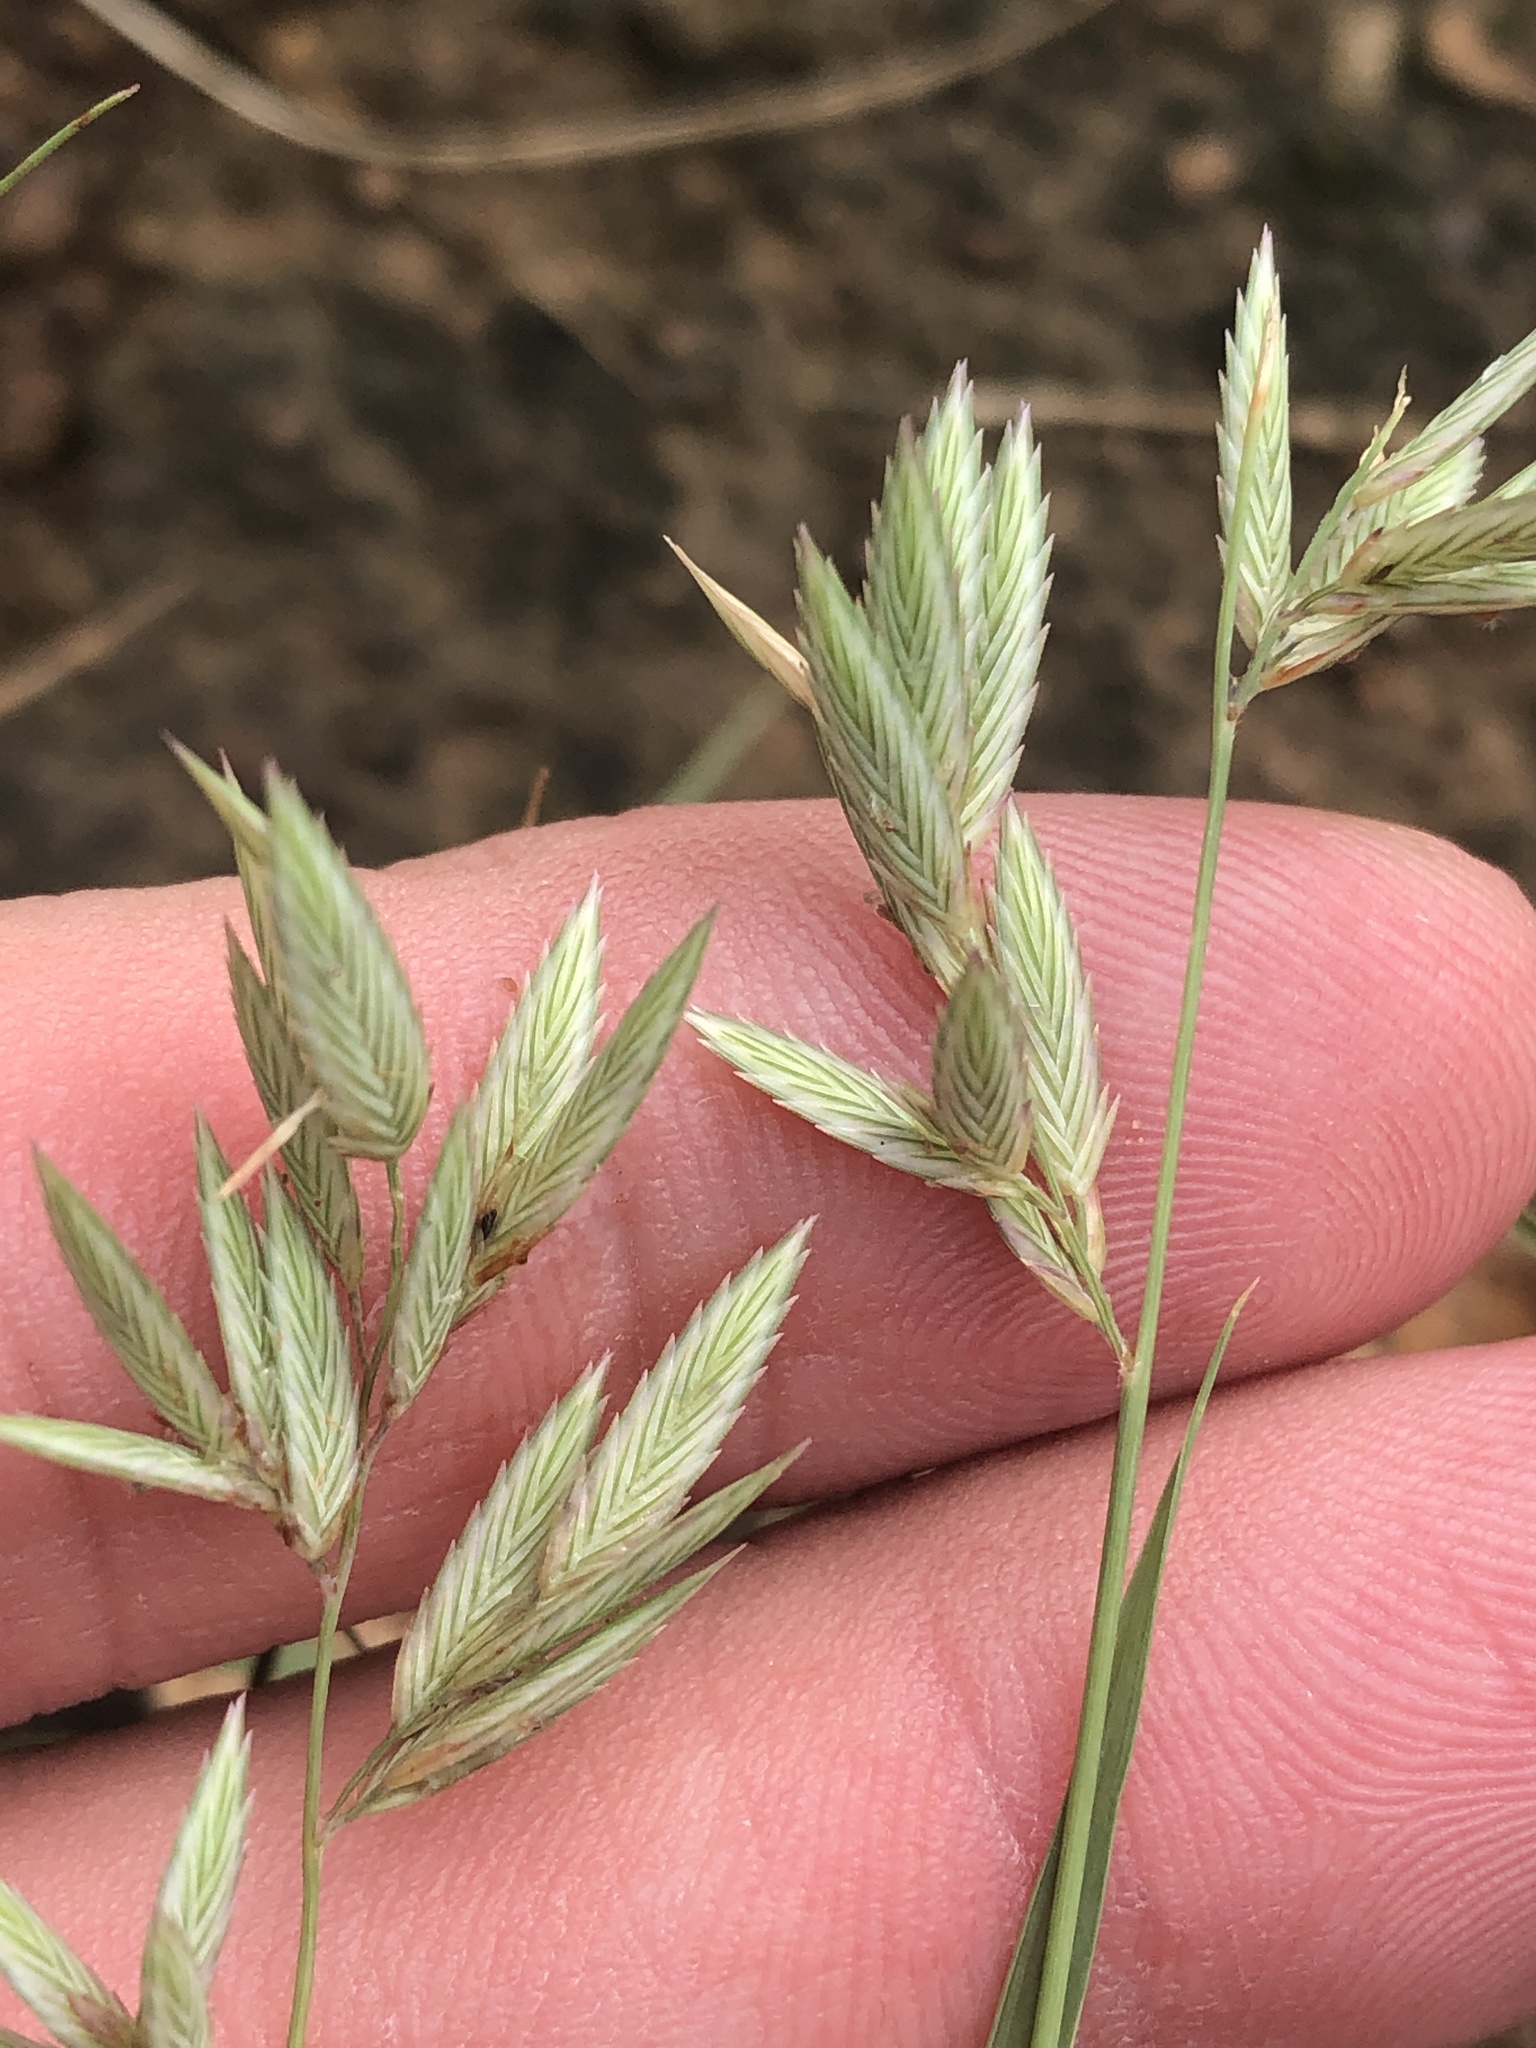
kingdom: Plantae
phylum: Tracheophyta
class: Liliopsida
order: Poales
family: Poaceae
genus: Eragrostis
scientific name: Eragrostis secundiflora
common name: Red love grass
